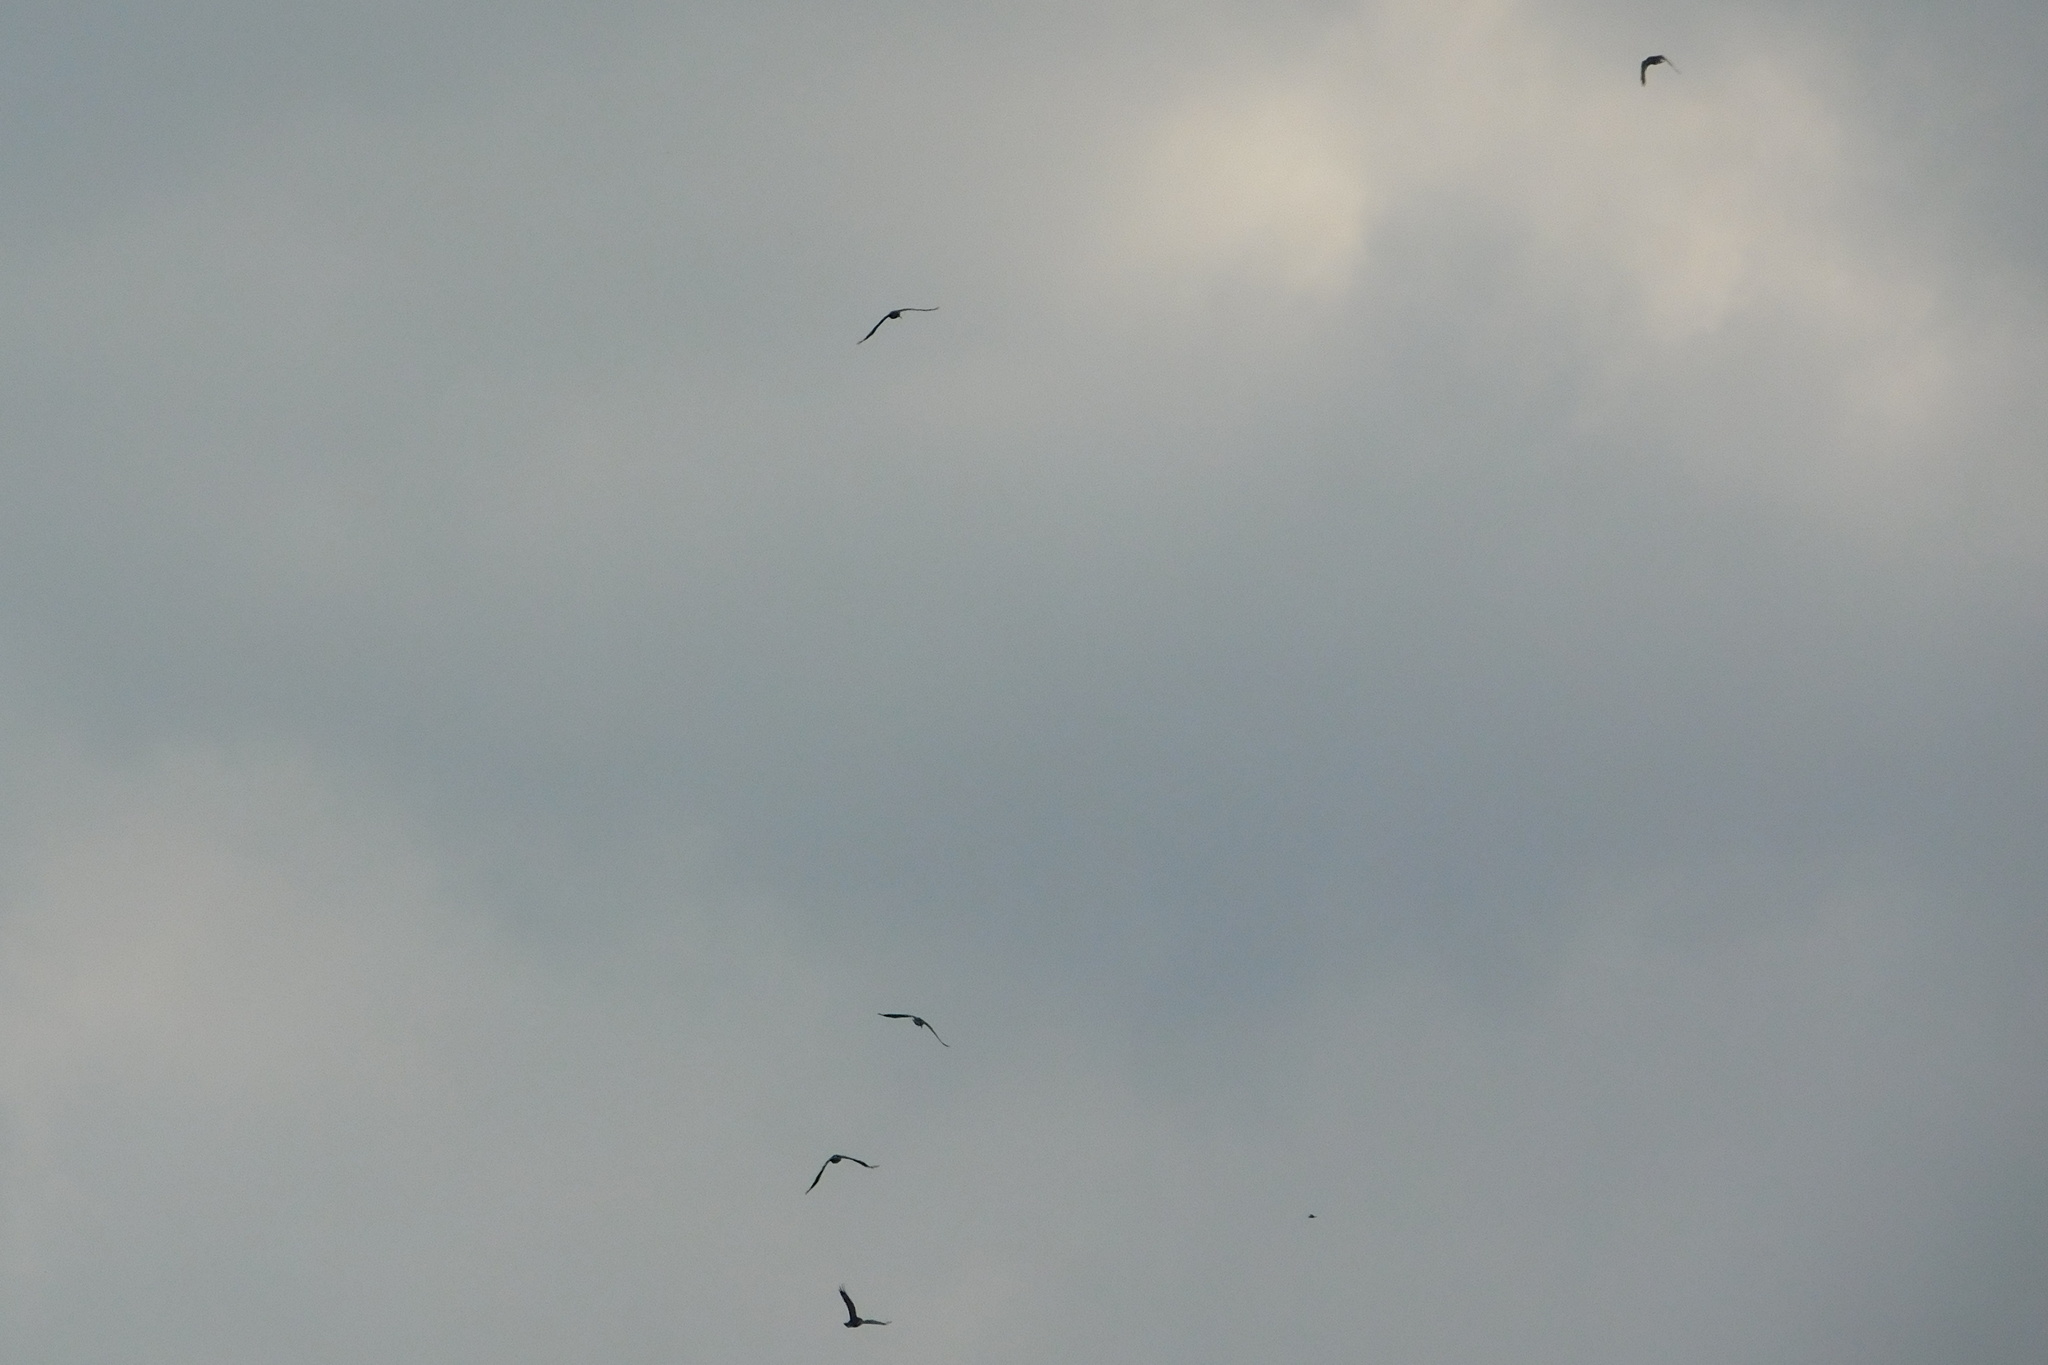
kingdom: Animalia
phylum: Chordata
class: Aves
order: Passeriformes
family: Corvidae
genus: Corvus
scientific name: Corvus frugilegus
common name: Rook
